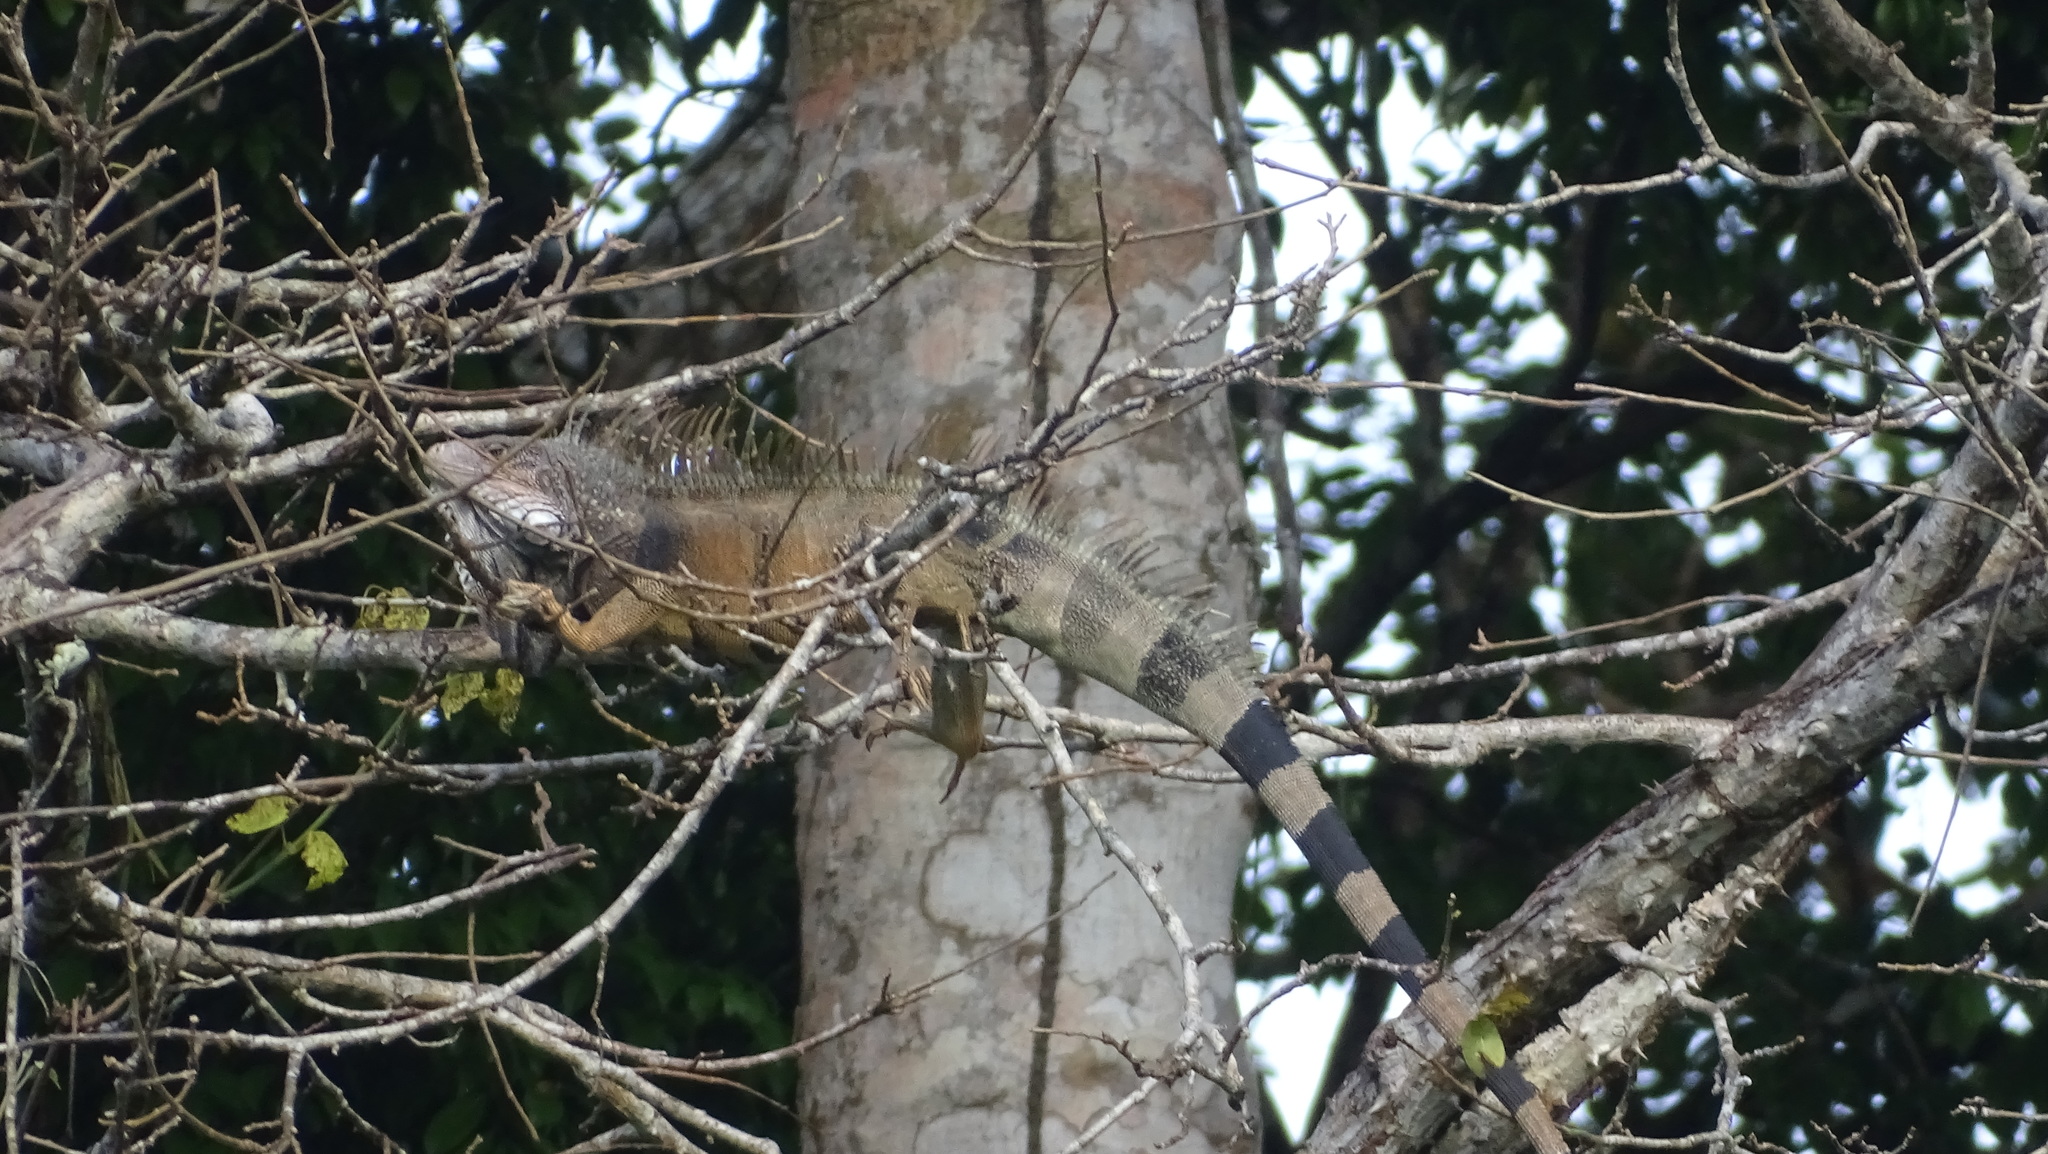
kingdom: Animalia
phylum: Chordata
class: Squamata
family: Iguanidae
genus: Iguana
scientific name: Iguana iguana
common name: Green iguana
